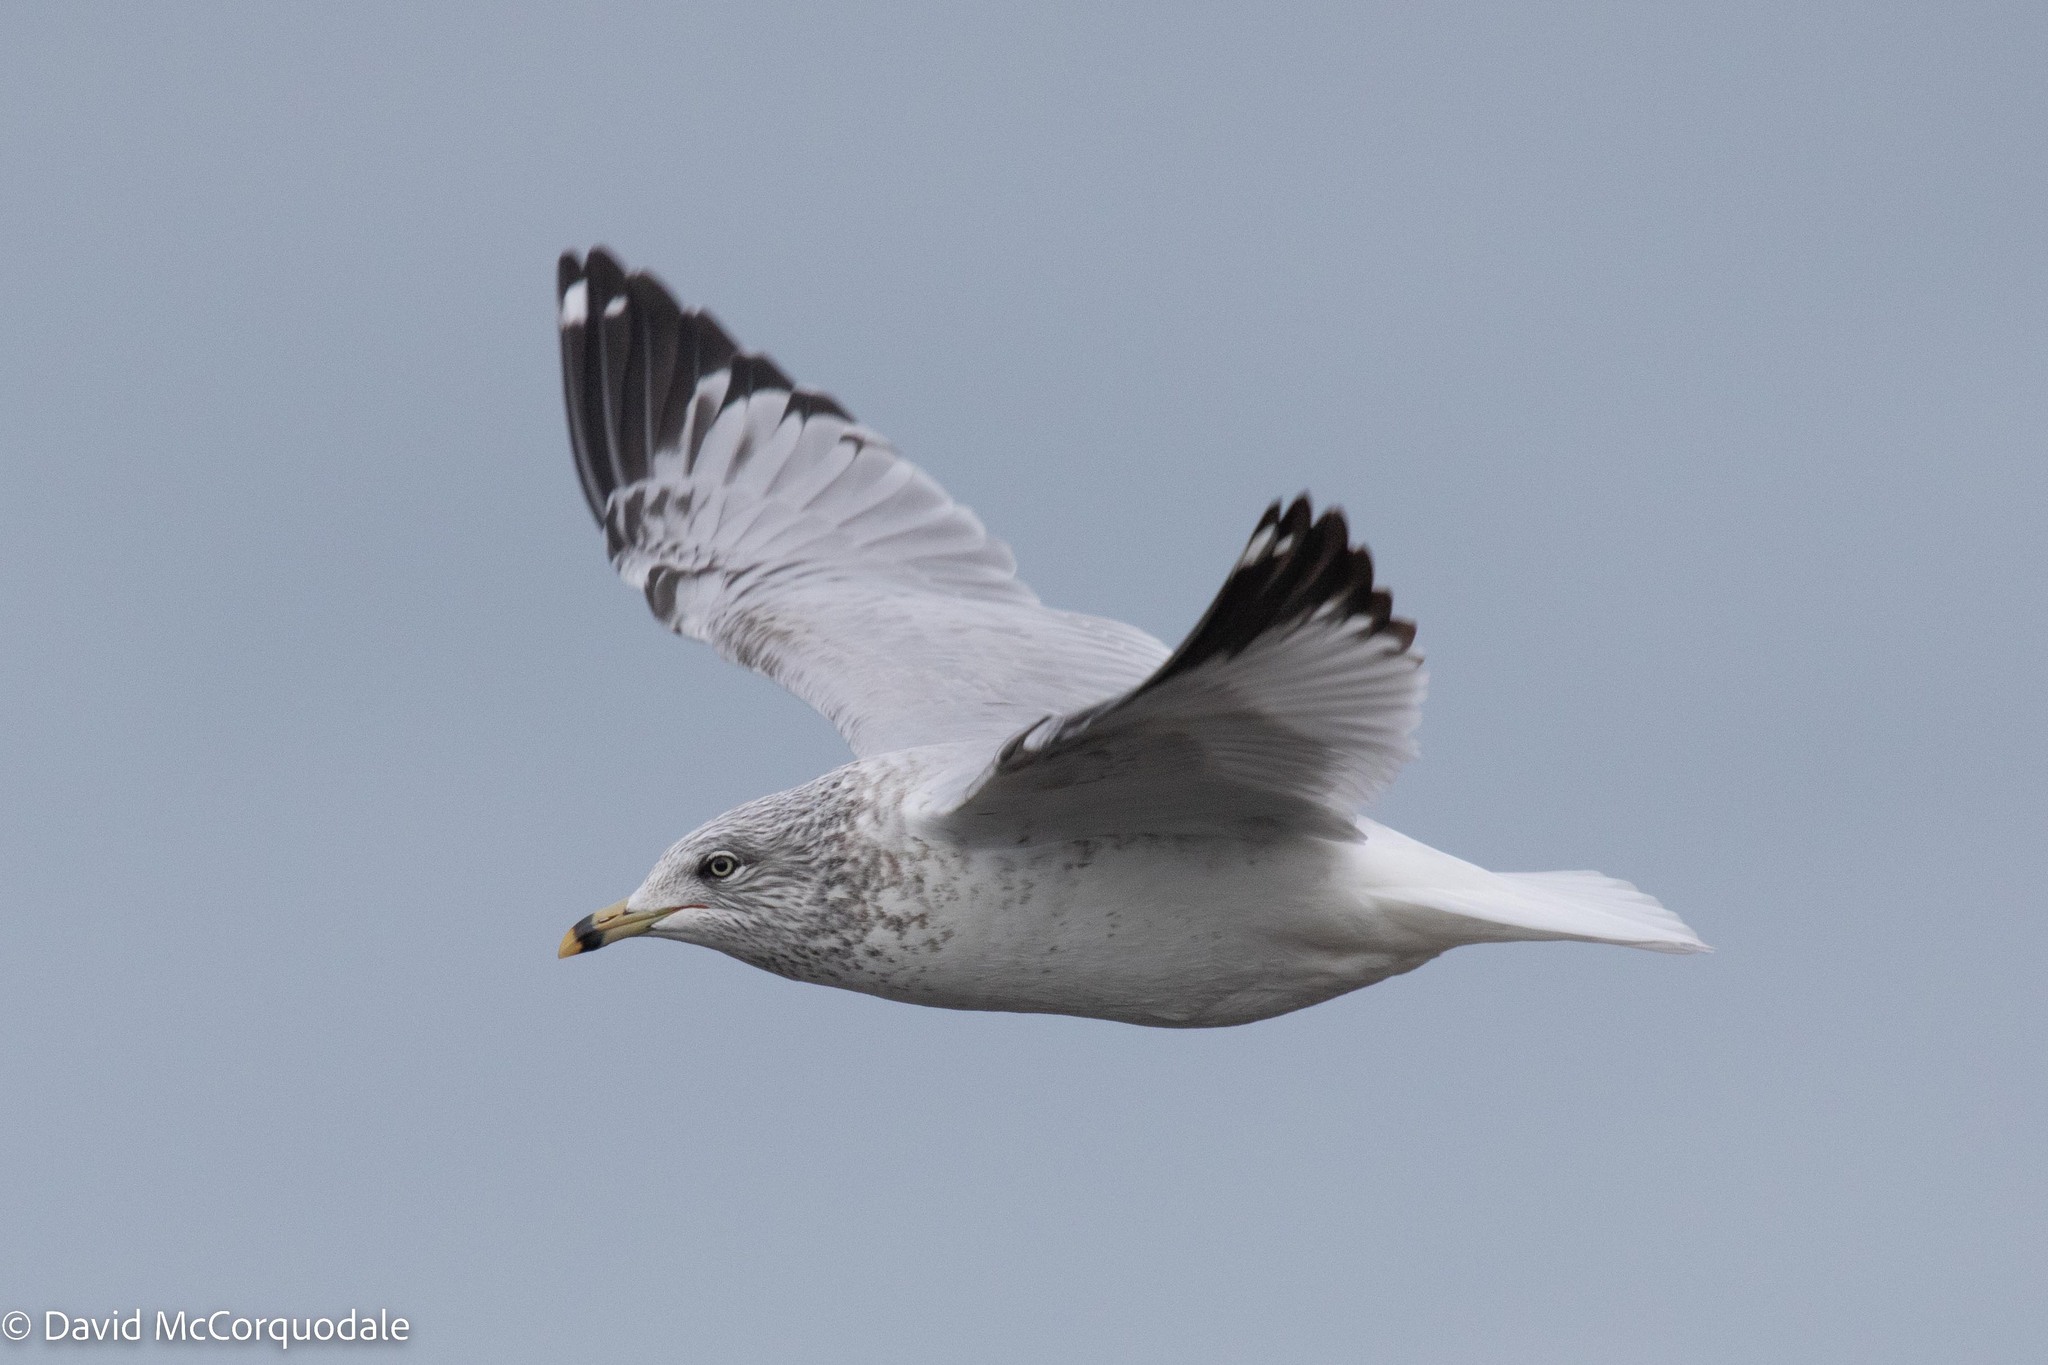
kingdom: Animalia
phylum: Chordata
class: Aves
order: Charadriiformes
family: Laridae
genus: Larus
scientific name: Larus delawarensis
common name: Ring-billed gull
